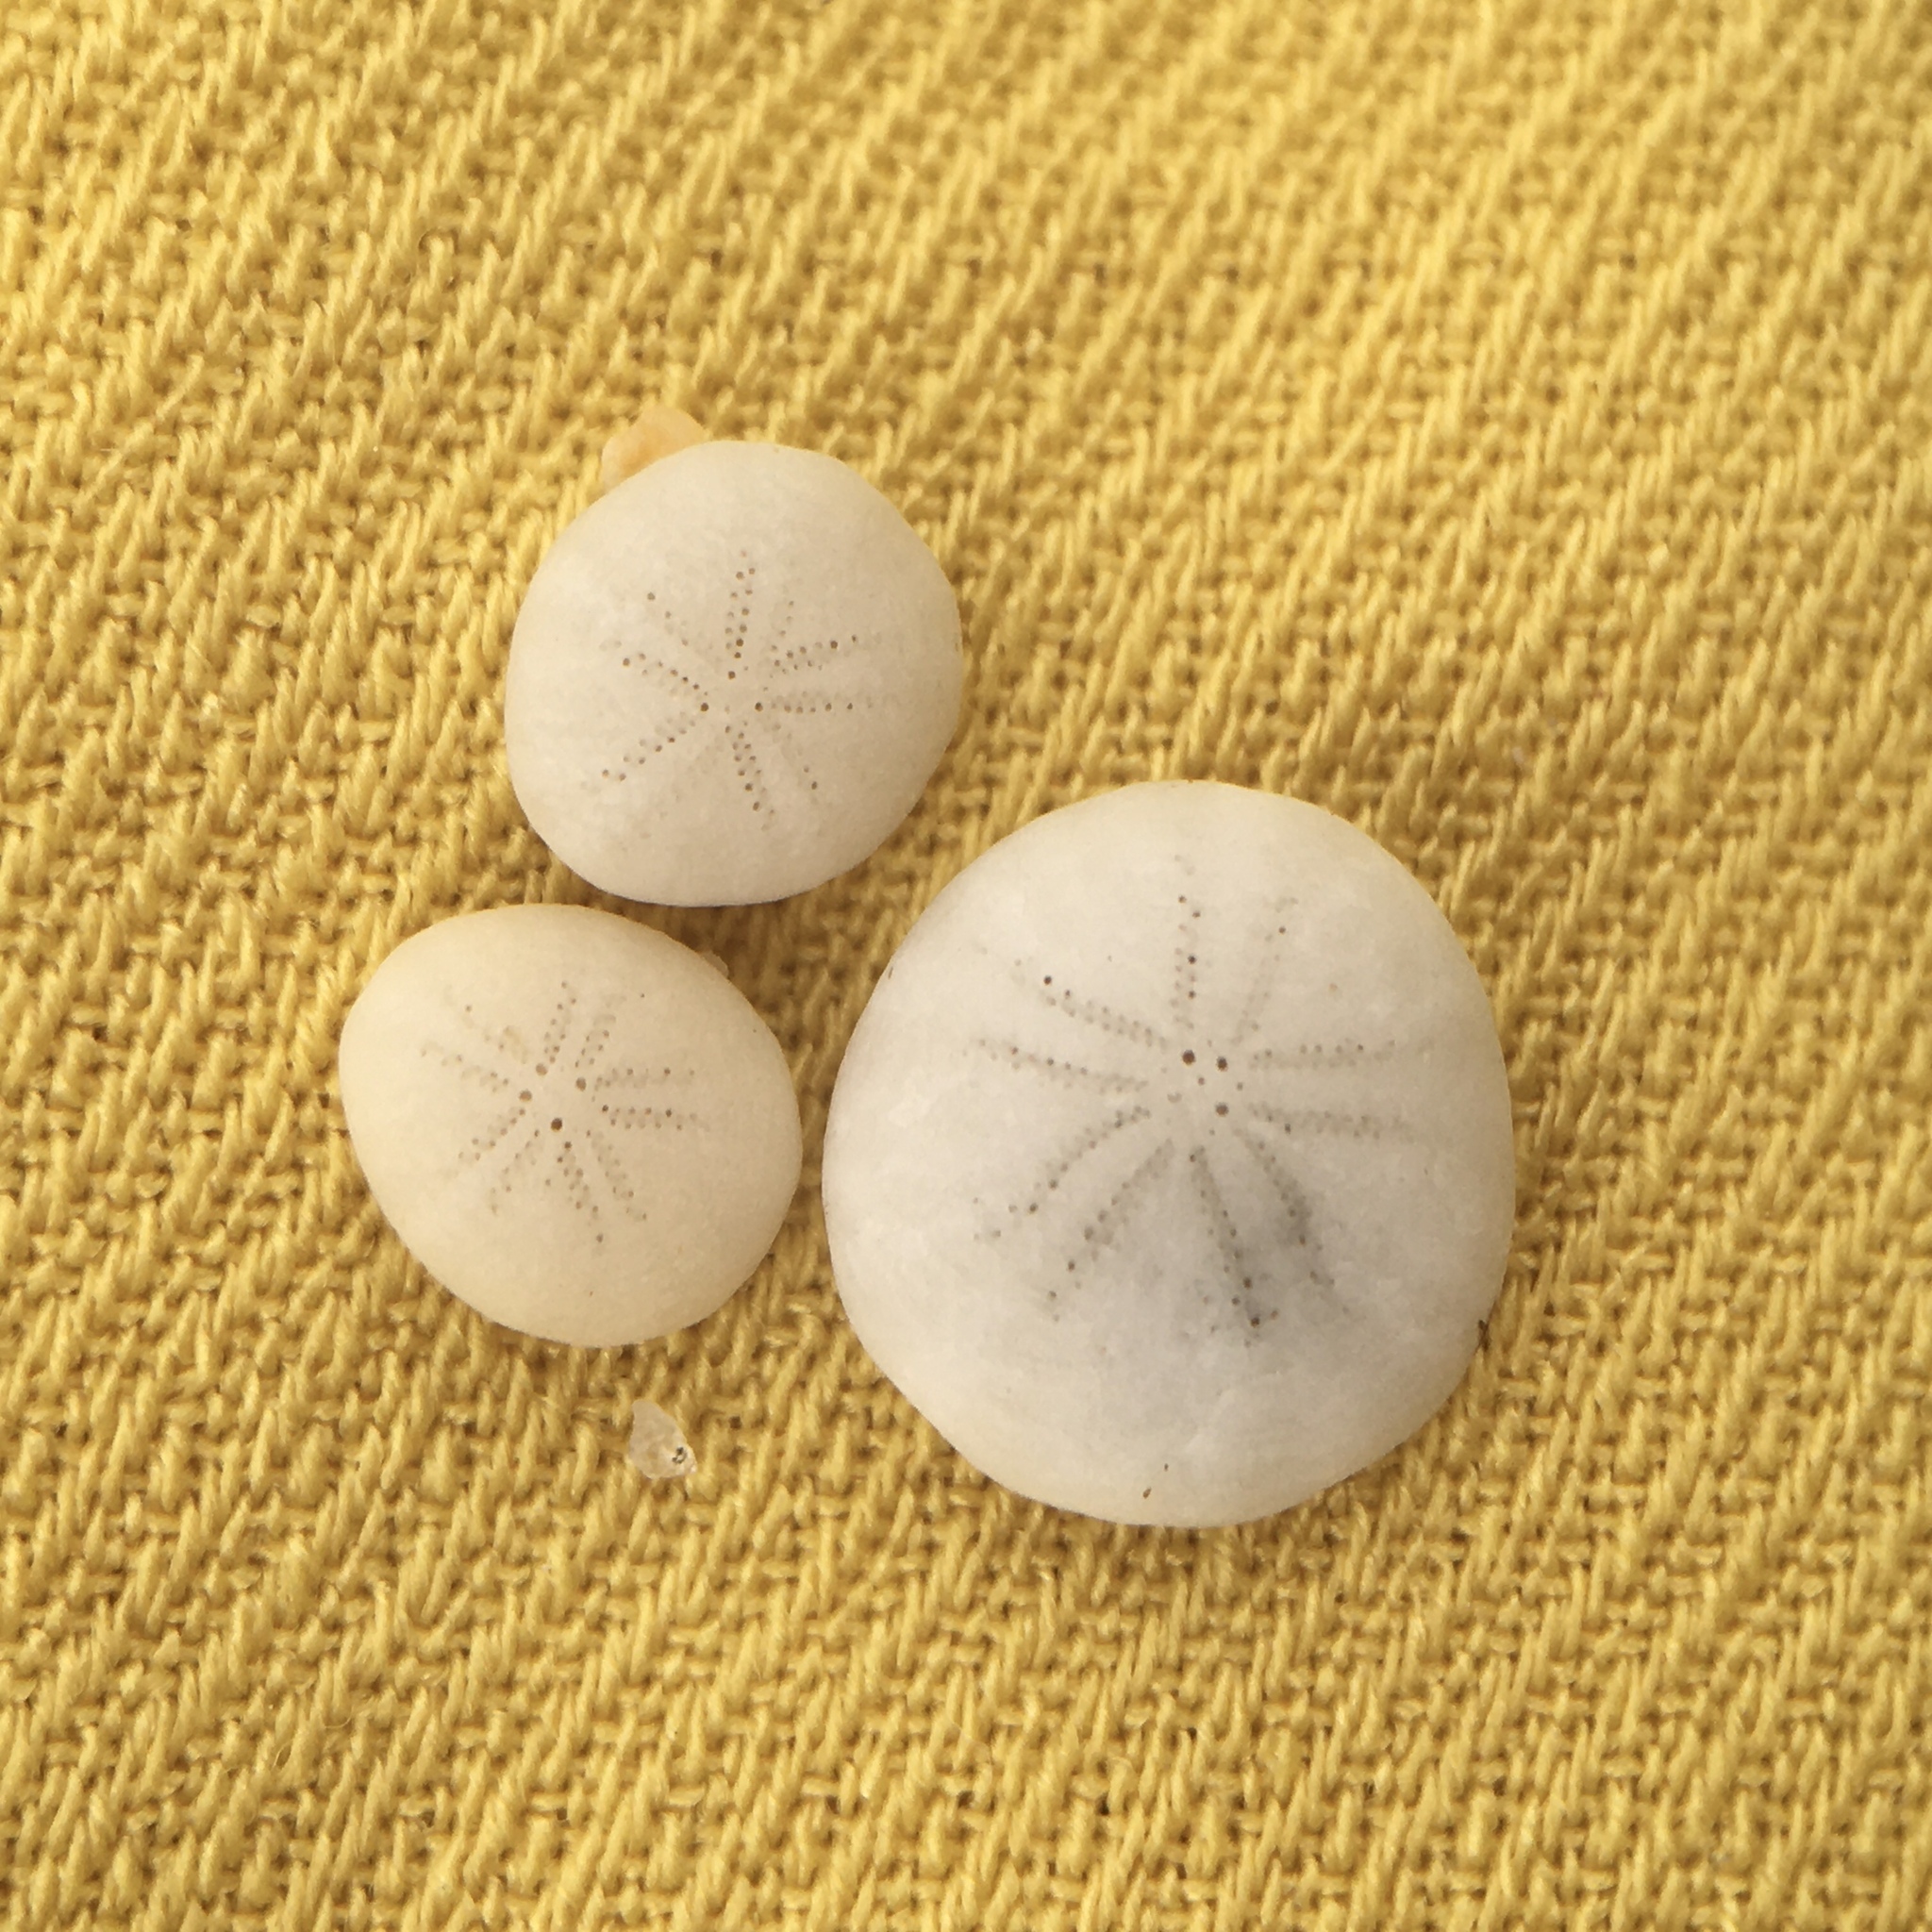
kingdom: Animalia
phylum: Echinodermata
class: Echinoidea
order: Echinolampadacea
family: Fibulariidae
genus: Echinocyamus
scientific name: Echinocyamus pusillus
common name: Broad beau of sea
